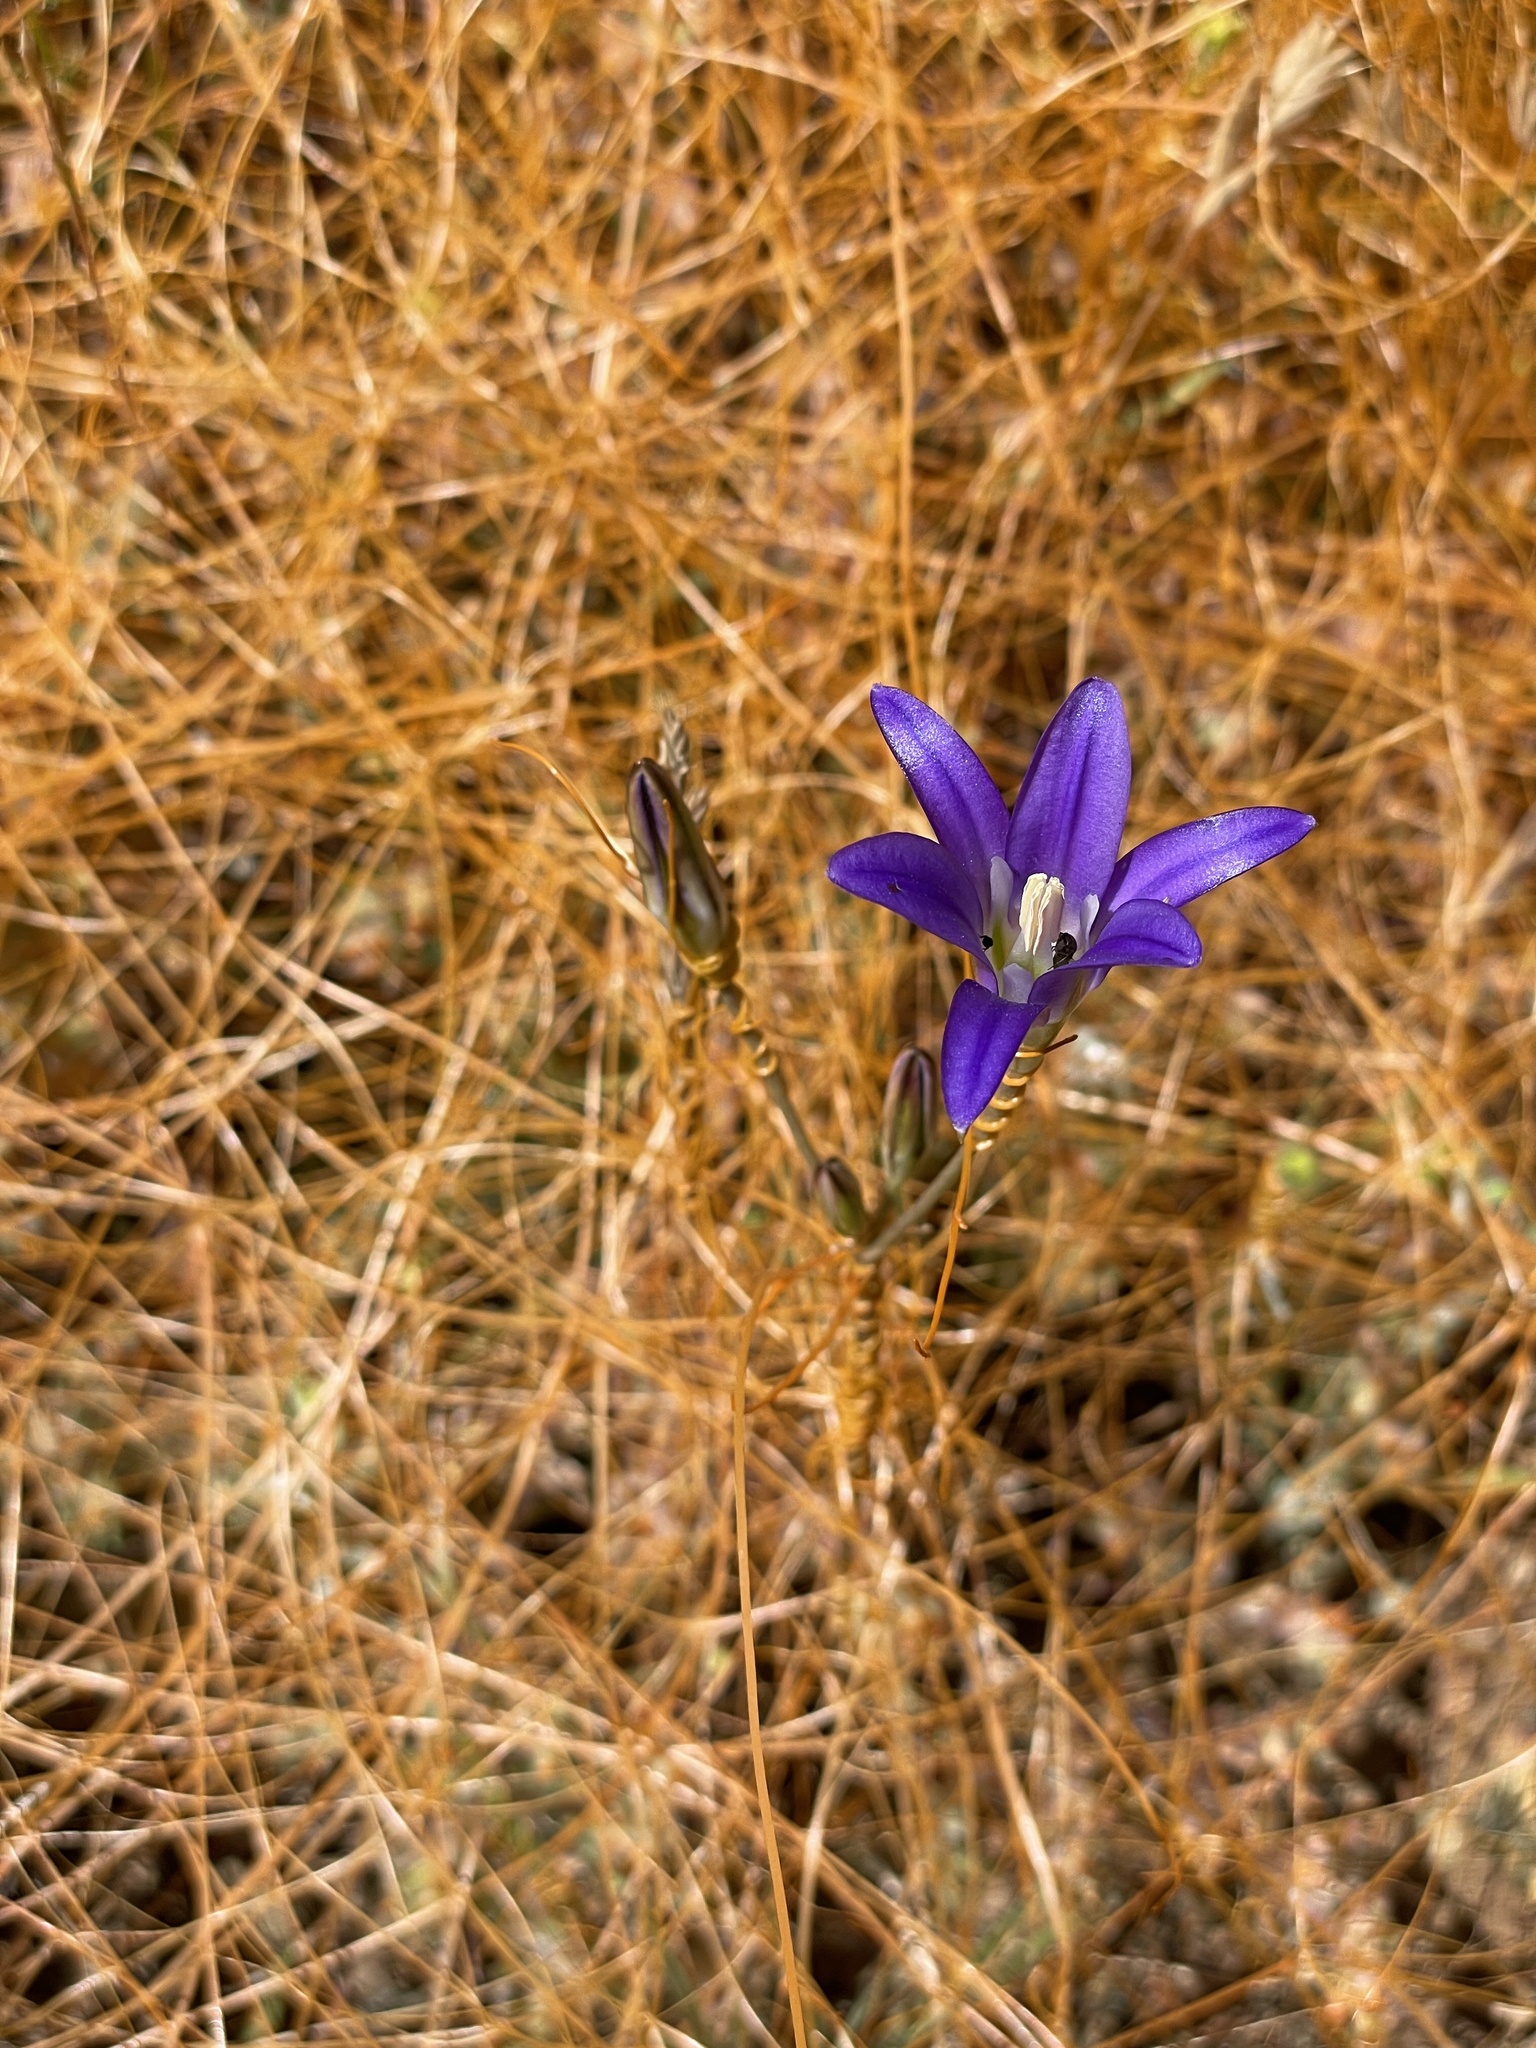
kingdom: Plantae
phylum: Tracheophyta
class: Liliopsida
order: Asparagales
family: Asparagaceae
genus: Brodiaea
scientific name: Brodiaea elegans
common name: Elegant cluster-lily
